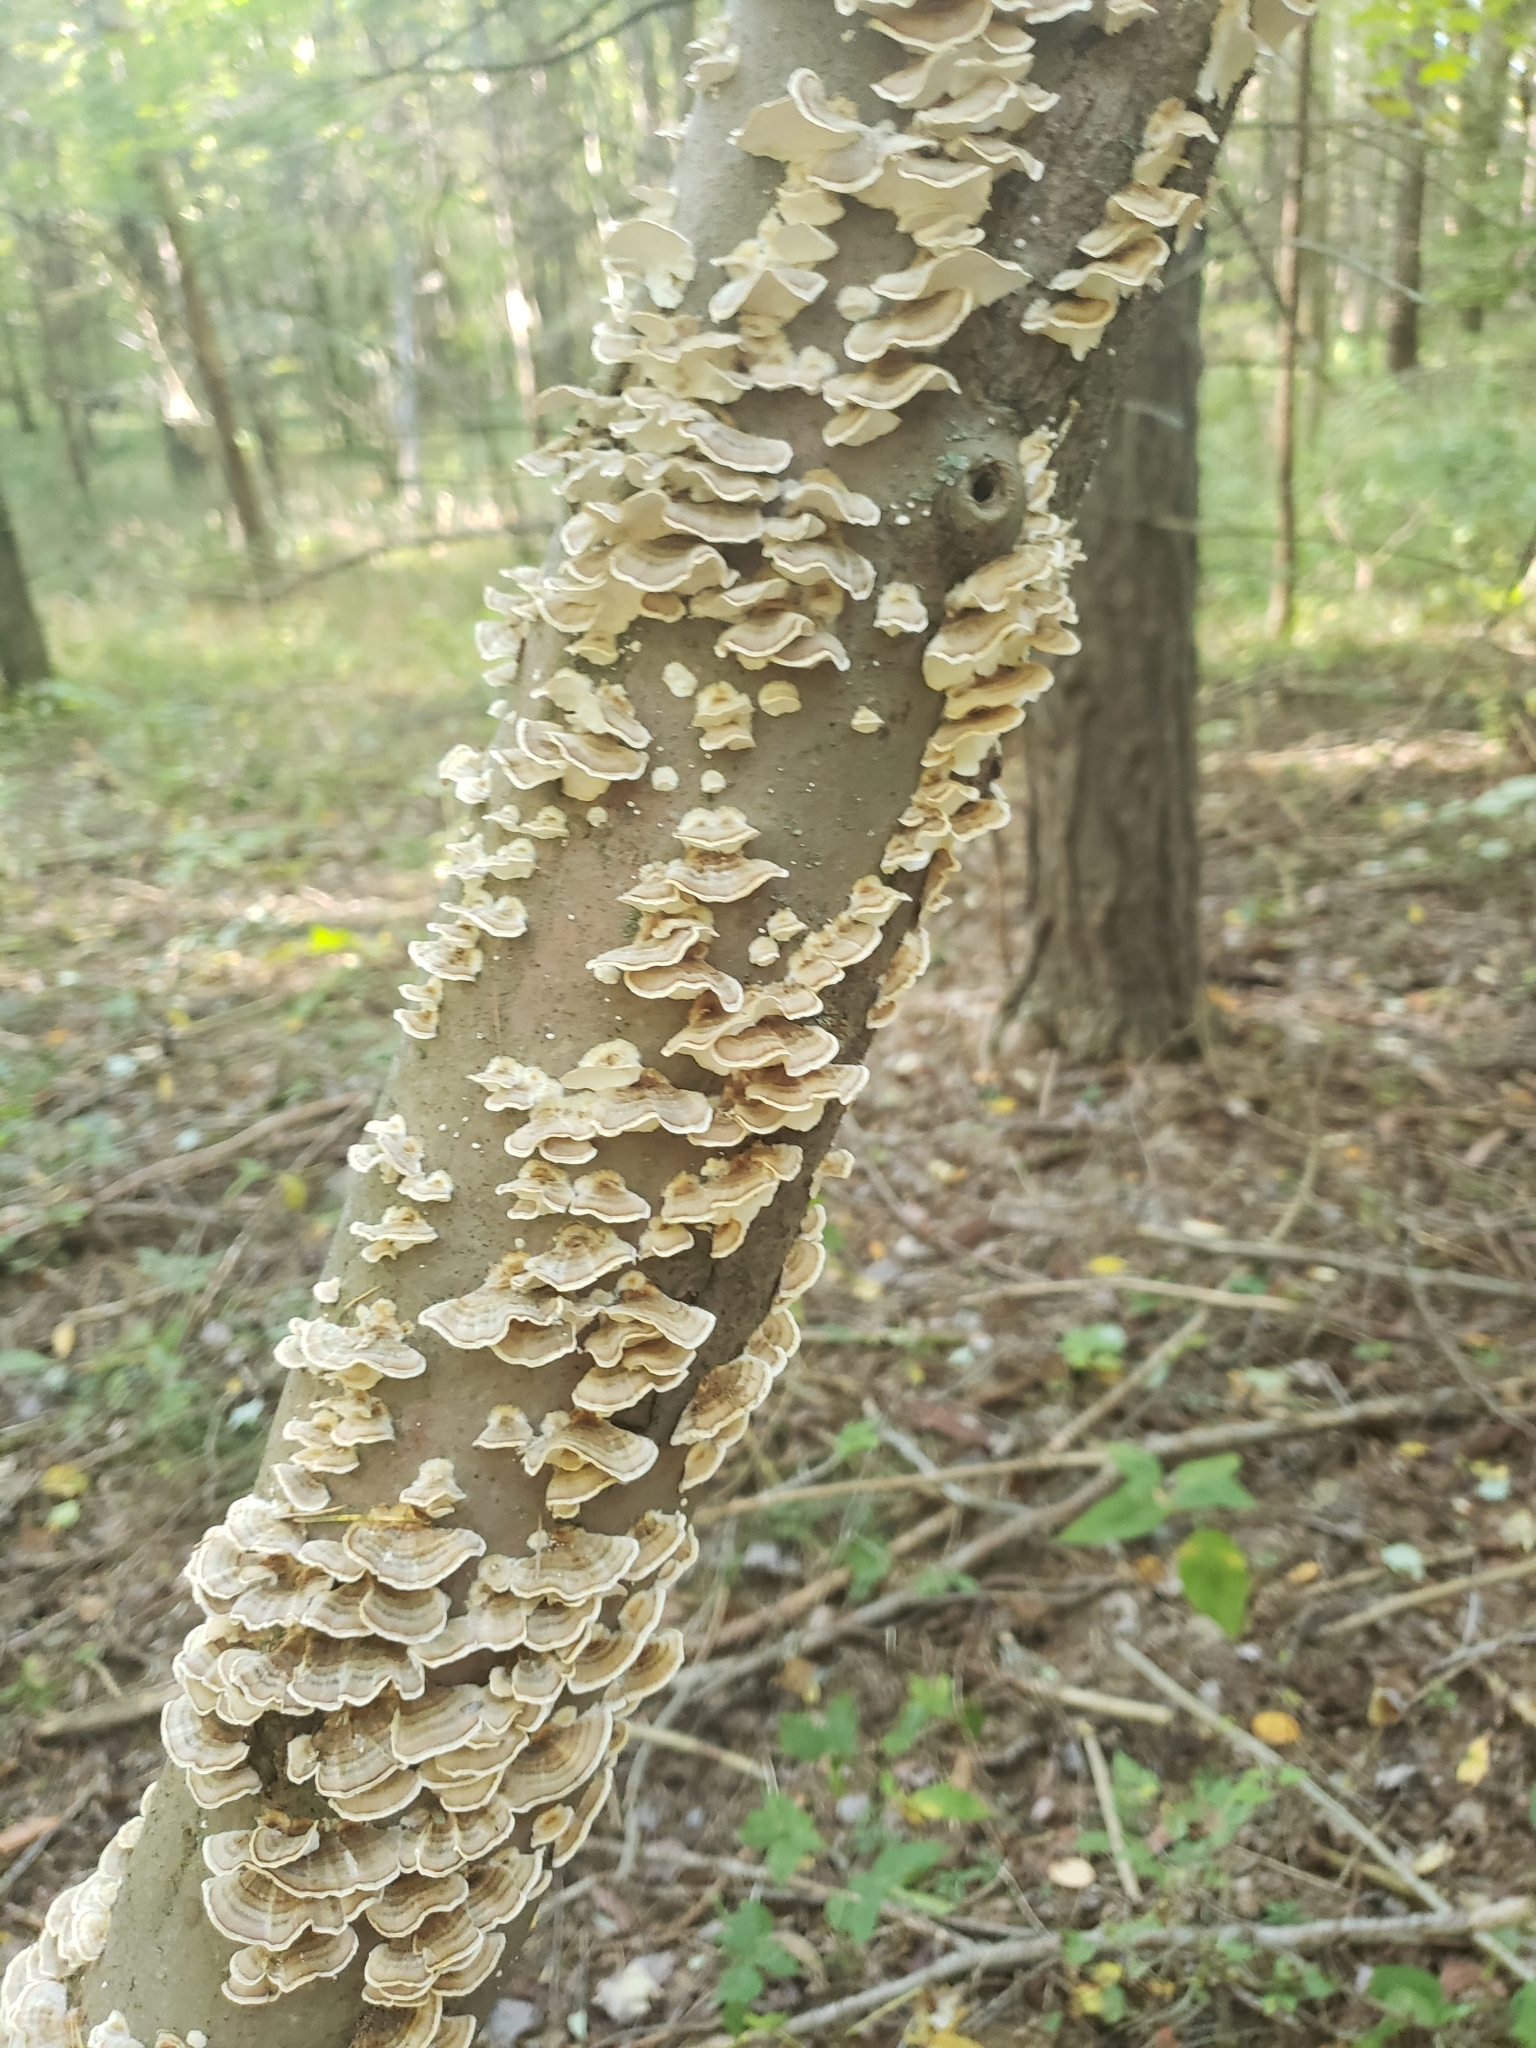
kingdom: Fungi
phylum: Basidiomycota
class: Agaricomycetes
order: Polyporales
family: Polyporaceae
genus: Trametes
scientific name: Trametes versicolor
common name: Turkeytail
